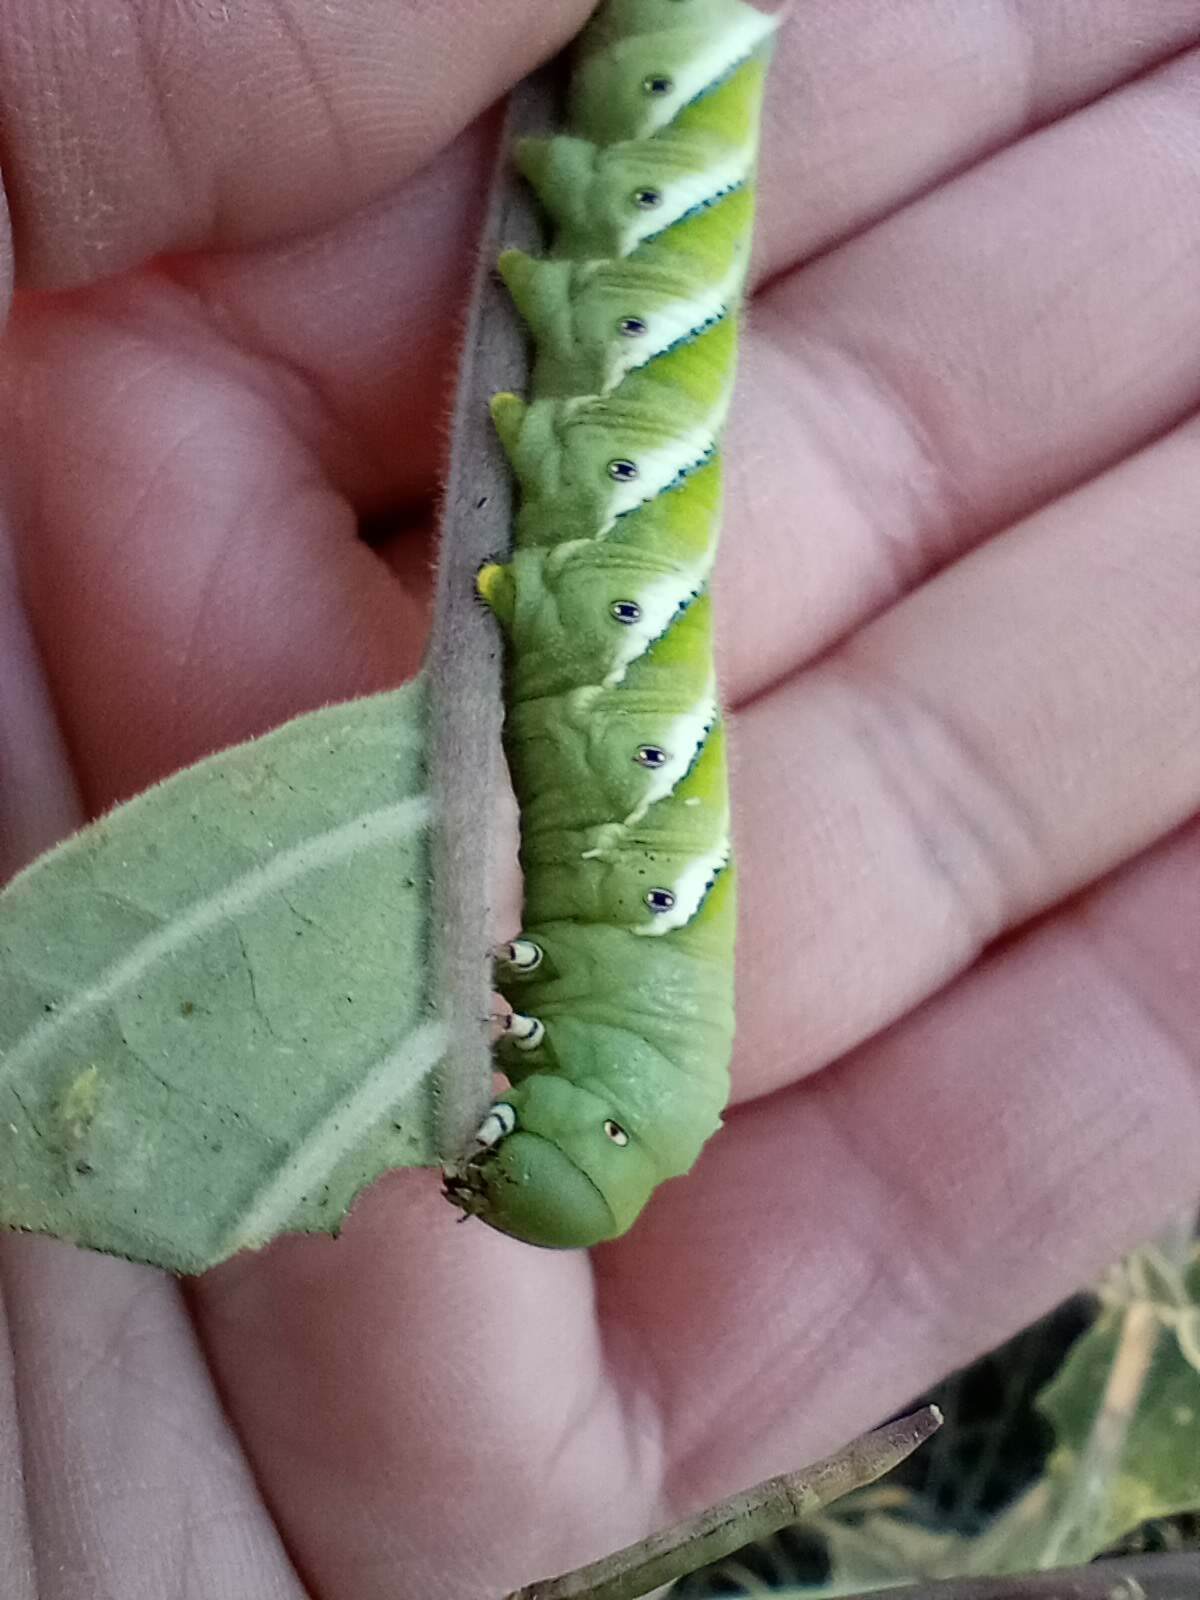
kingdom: Animalia
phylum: Arthropoda
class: Insecta
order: Lepidoptera
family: Sphingidae
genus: Manduca
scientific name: Manduca sexta
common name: Carolina sphinx
